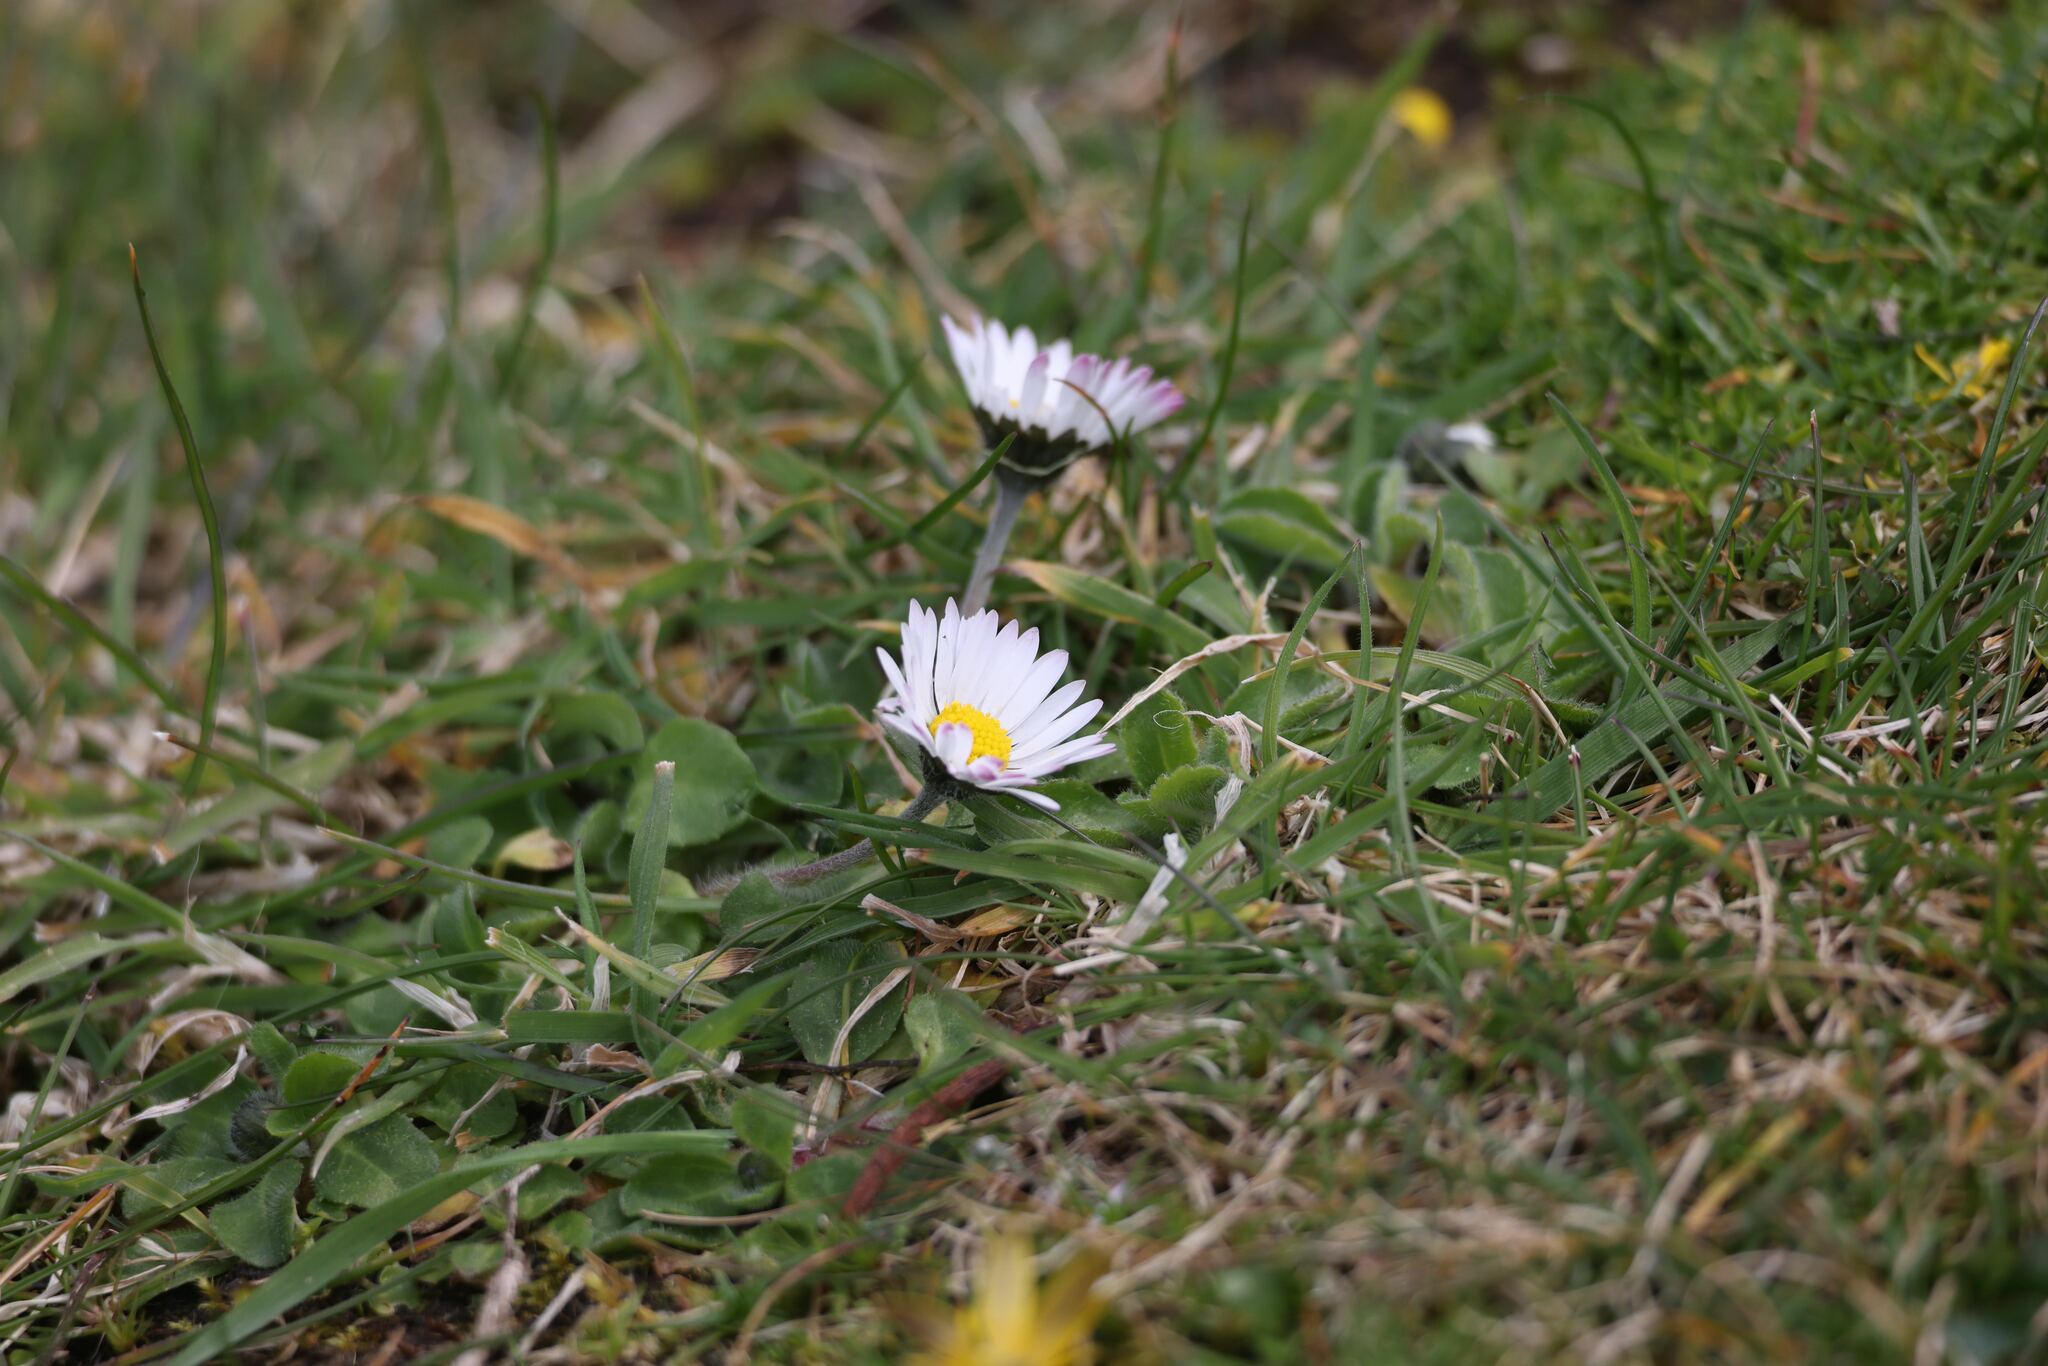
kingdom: Plantae
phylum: Tracheophyta
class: Magnoliopsida
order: Asterales
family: Asteraceae
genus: Bellis
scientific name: Bellis perennis
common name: Lawndaisy
